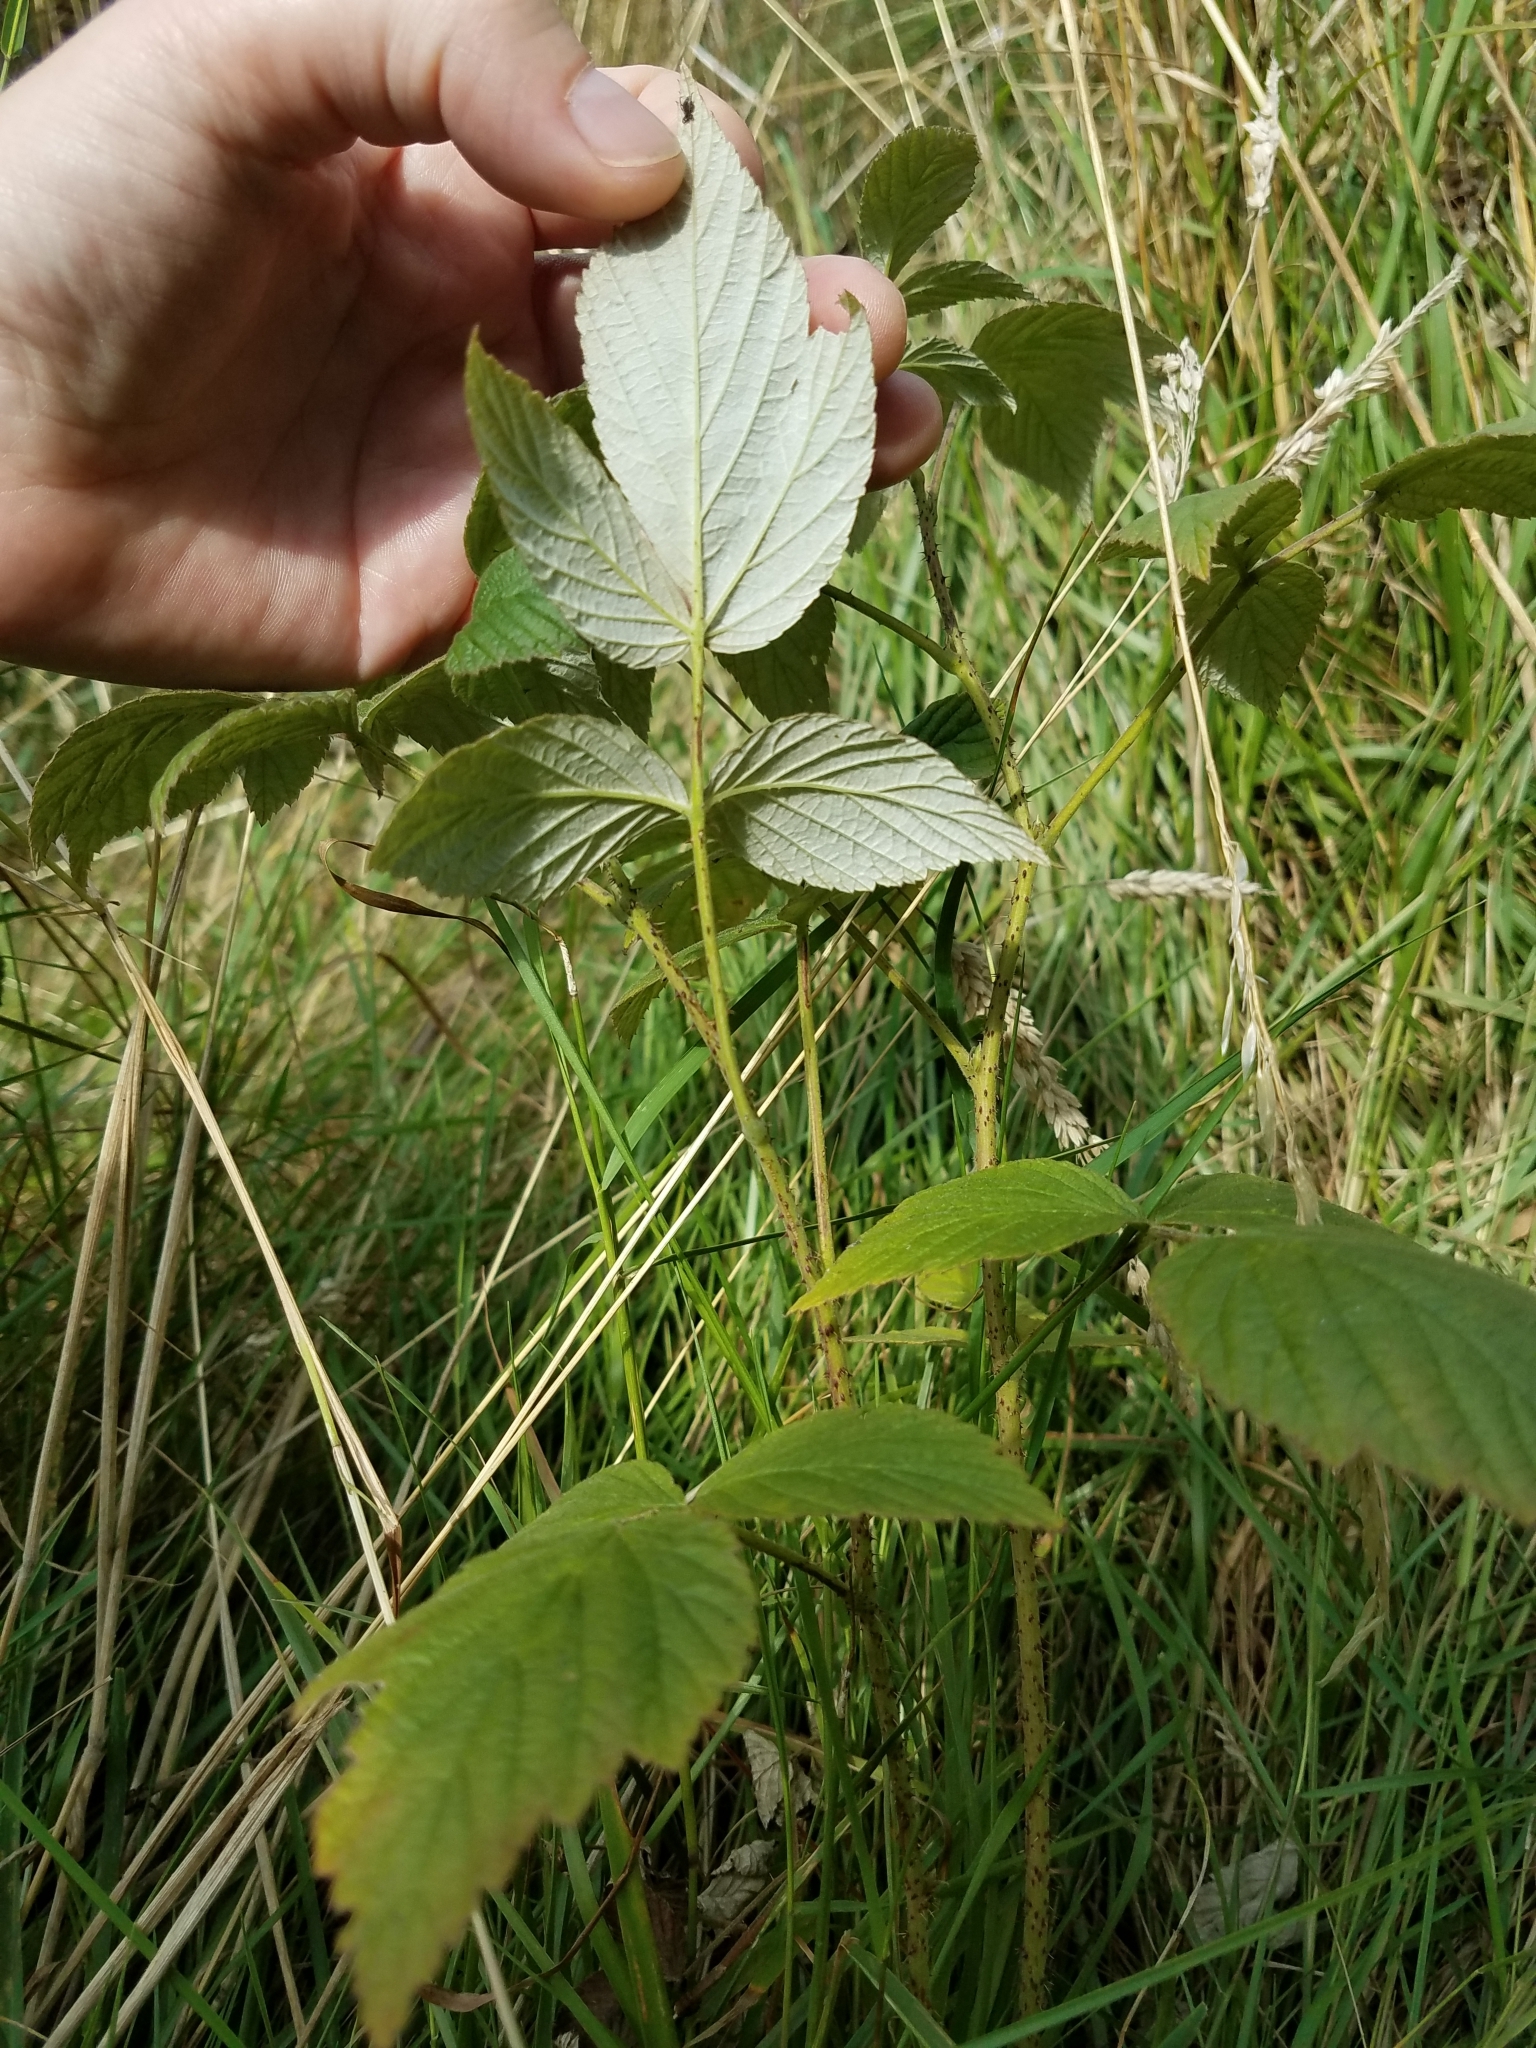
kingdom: Plantae
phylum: Tracheophyta
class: Magnoliopsida
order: Rosales
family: Rosaceae
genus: Rubus
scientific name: Rubus idaeus
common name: Raspberry
